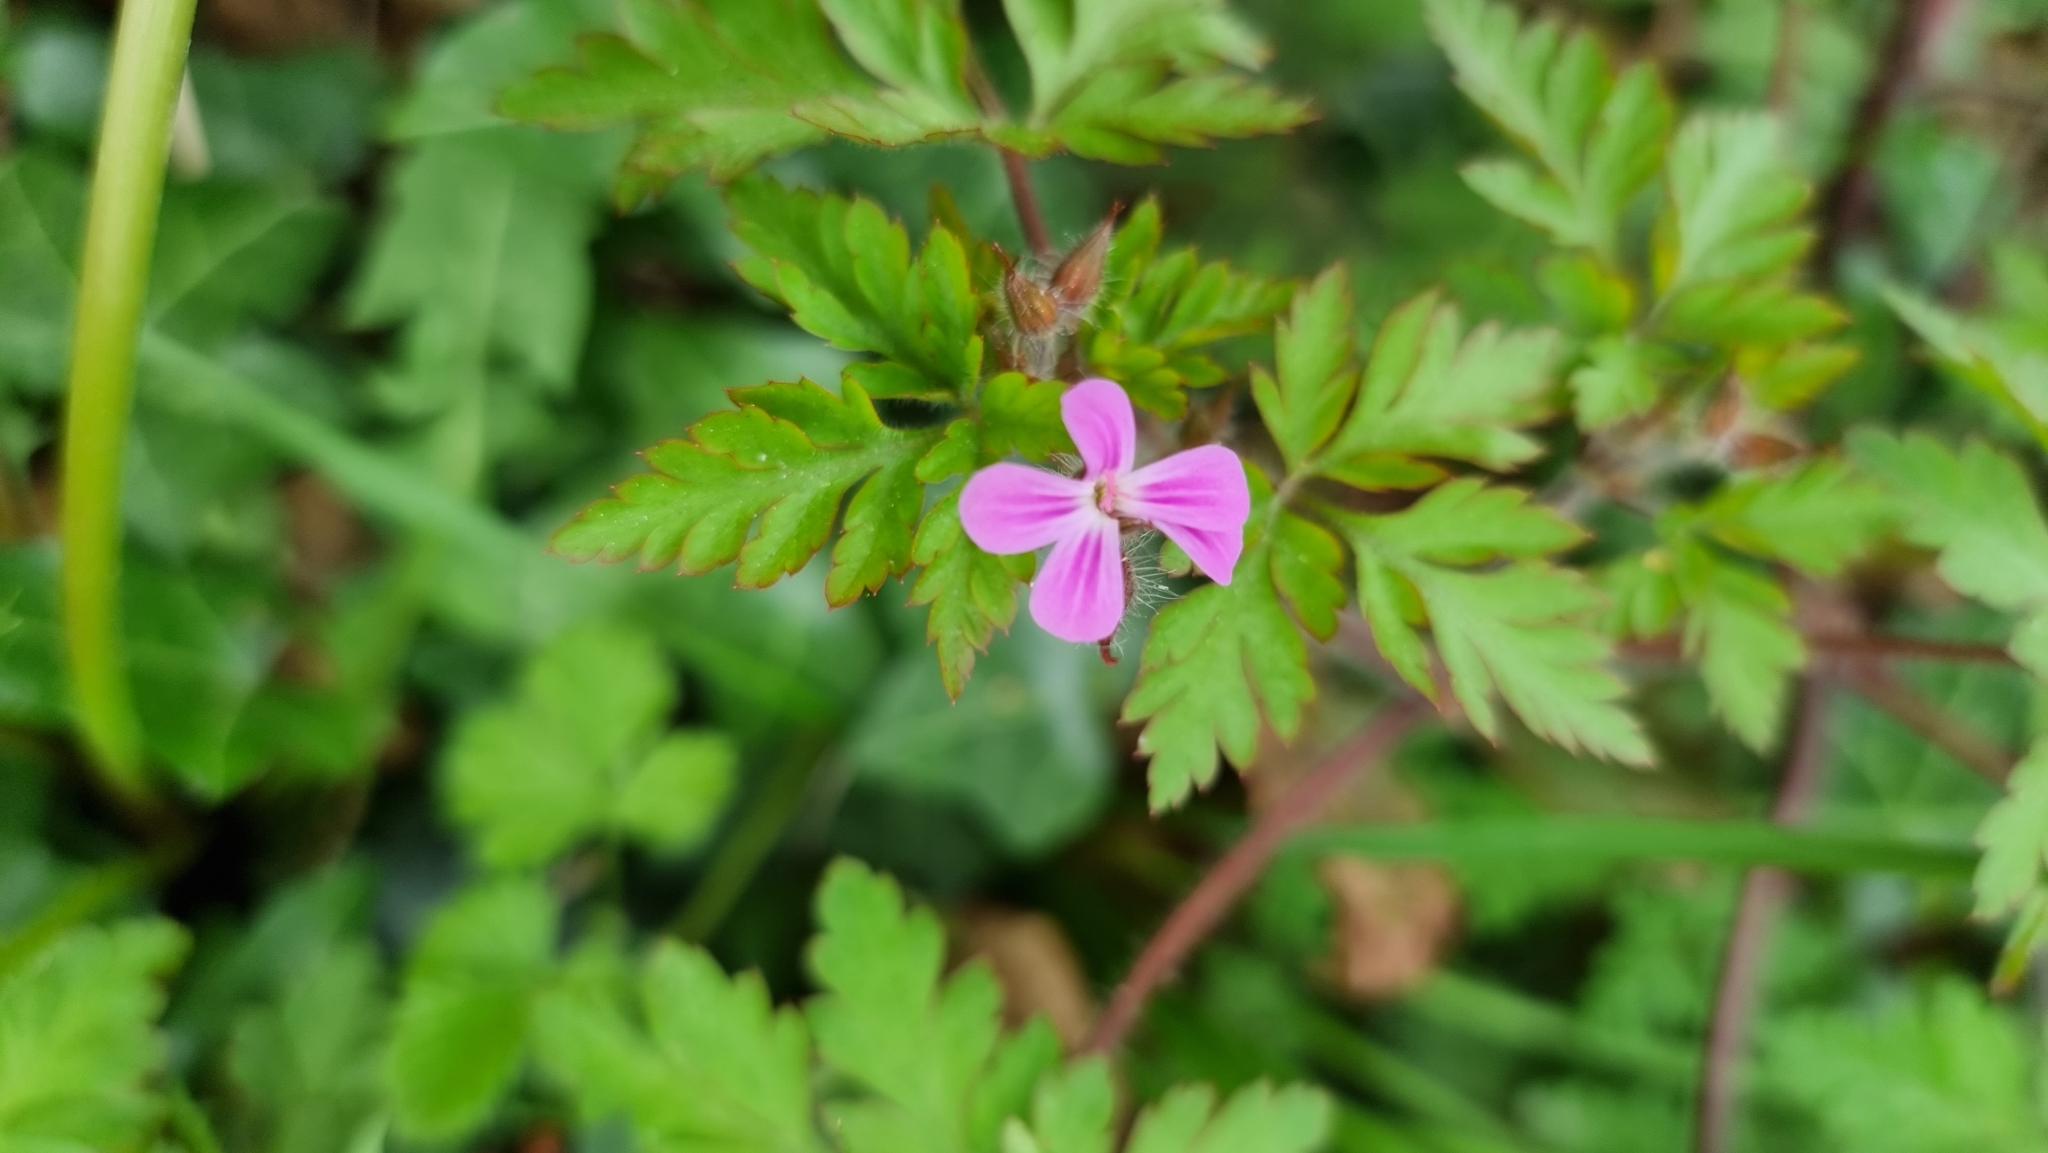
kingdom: Plantae
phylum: Tracheophyta
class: Magnoliopsida
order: Geraniales
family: Geraniaceae
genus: Geranium
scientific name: Geranium robertianum
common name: Herb-robert
